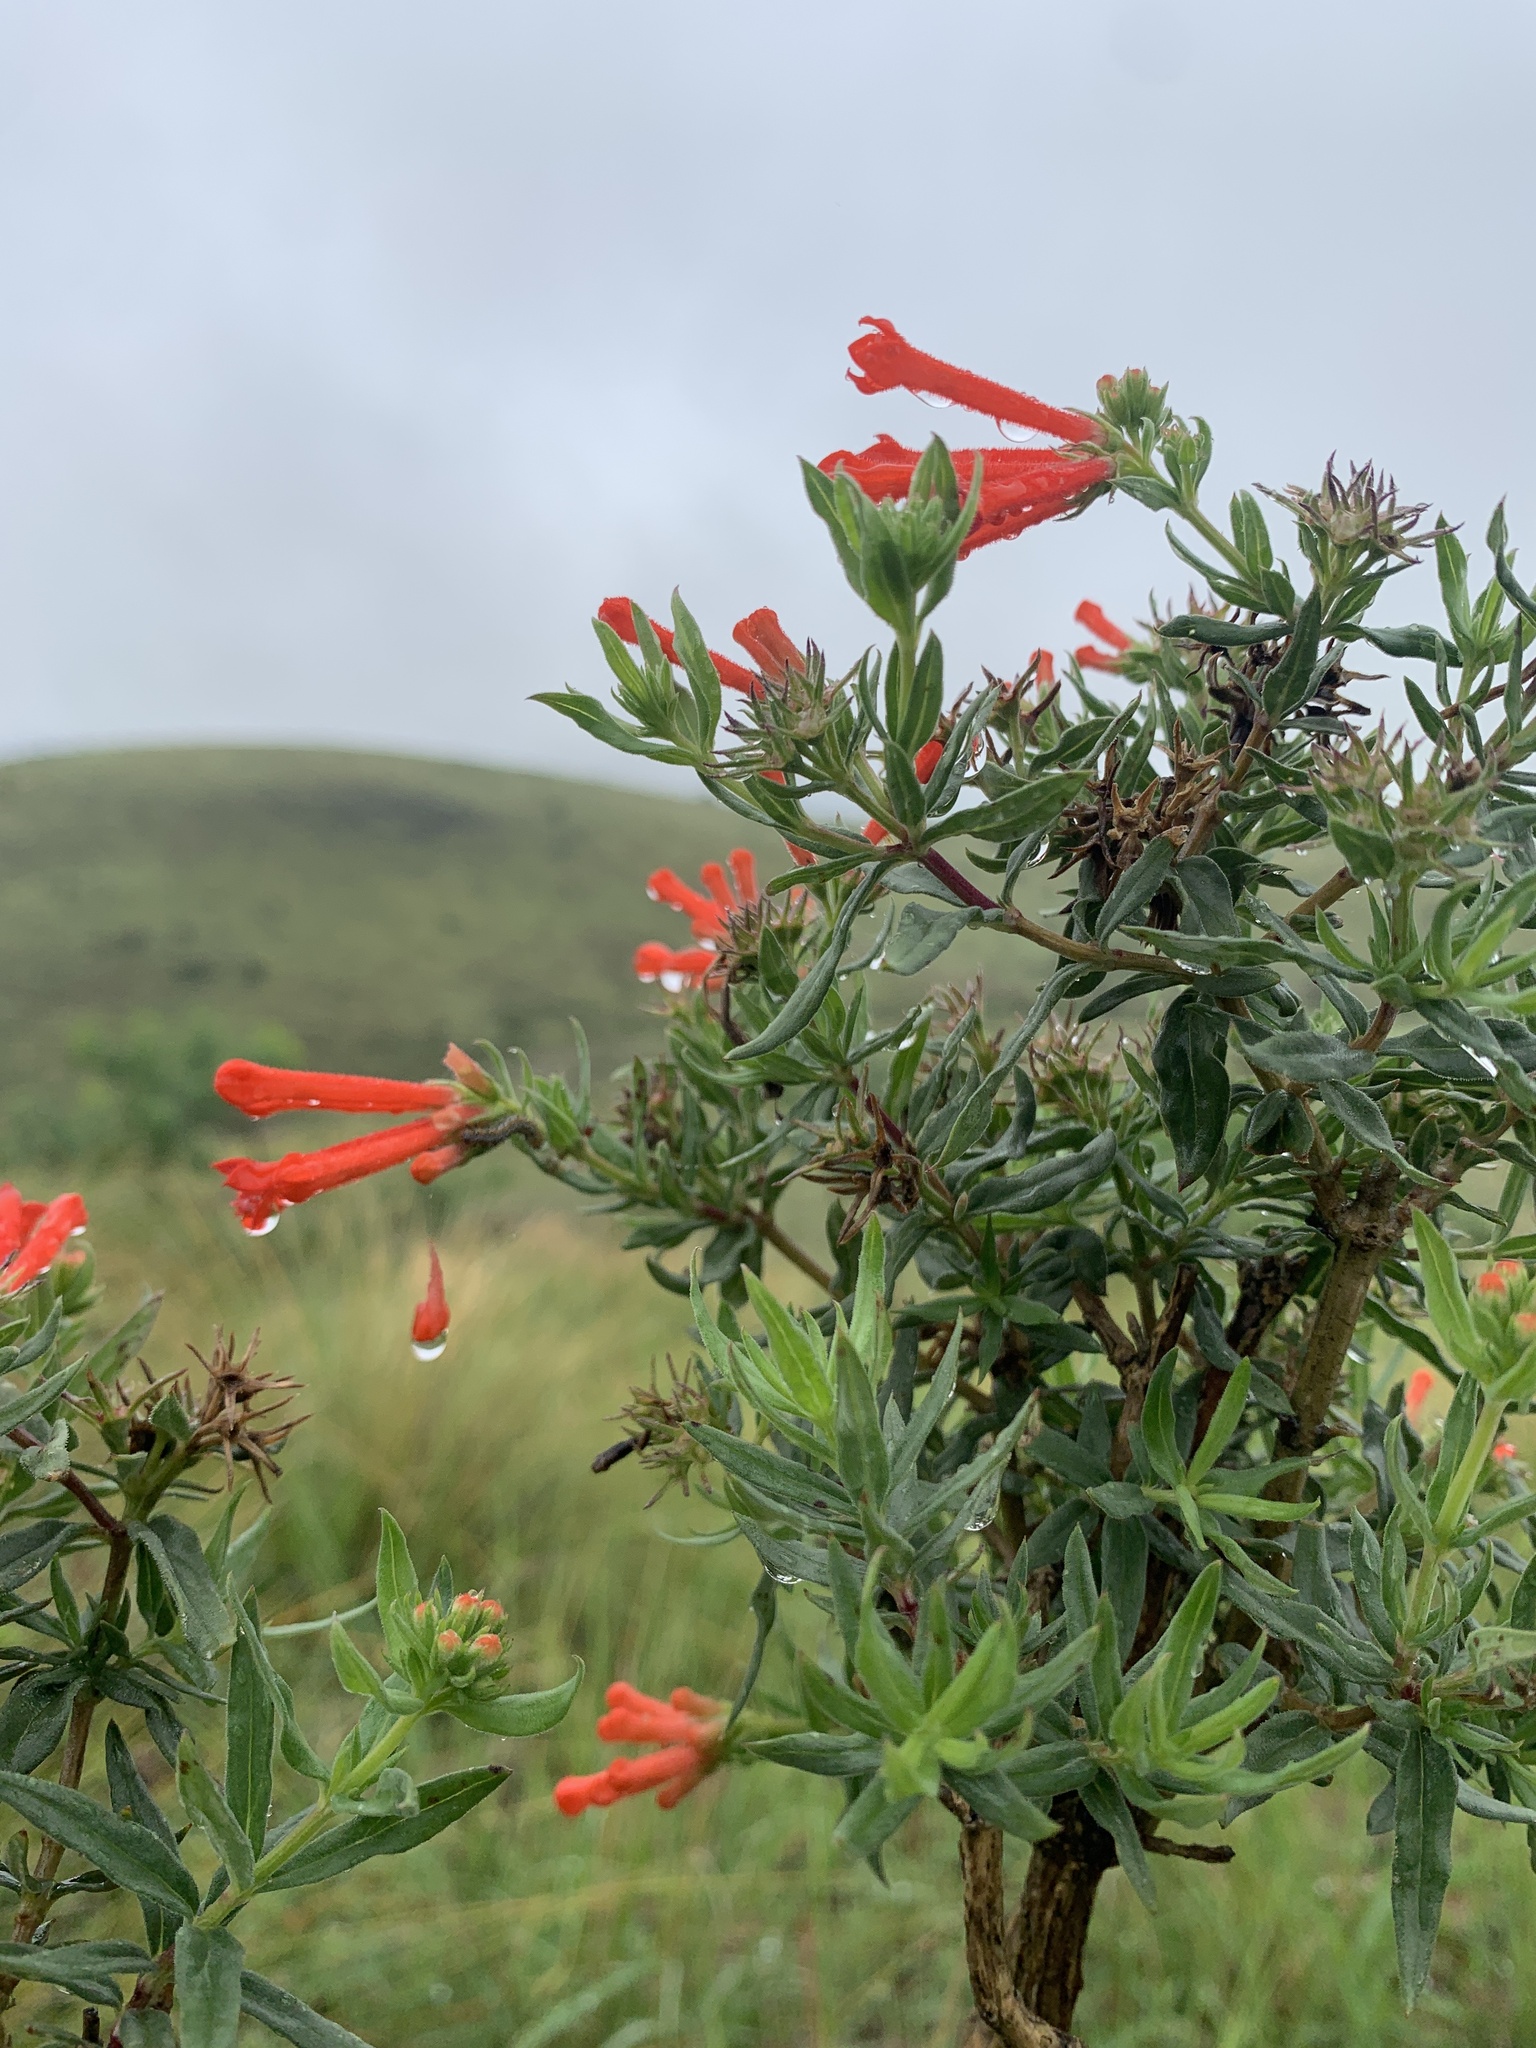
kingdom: Plantae
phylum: Tracheophyta
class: Magnoliopsida
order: Gentianales
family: Rubiaceae
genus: Bouvardia
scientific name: Bouvardia ternifolia
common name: Scarlet bouvardia
